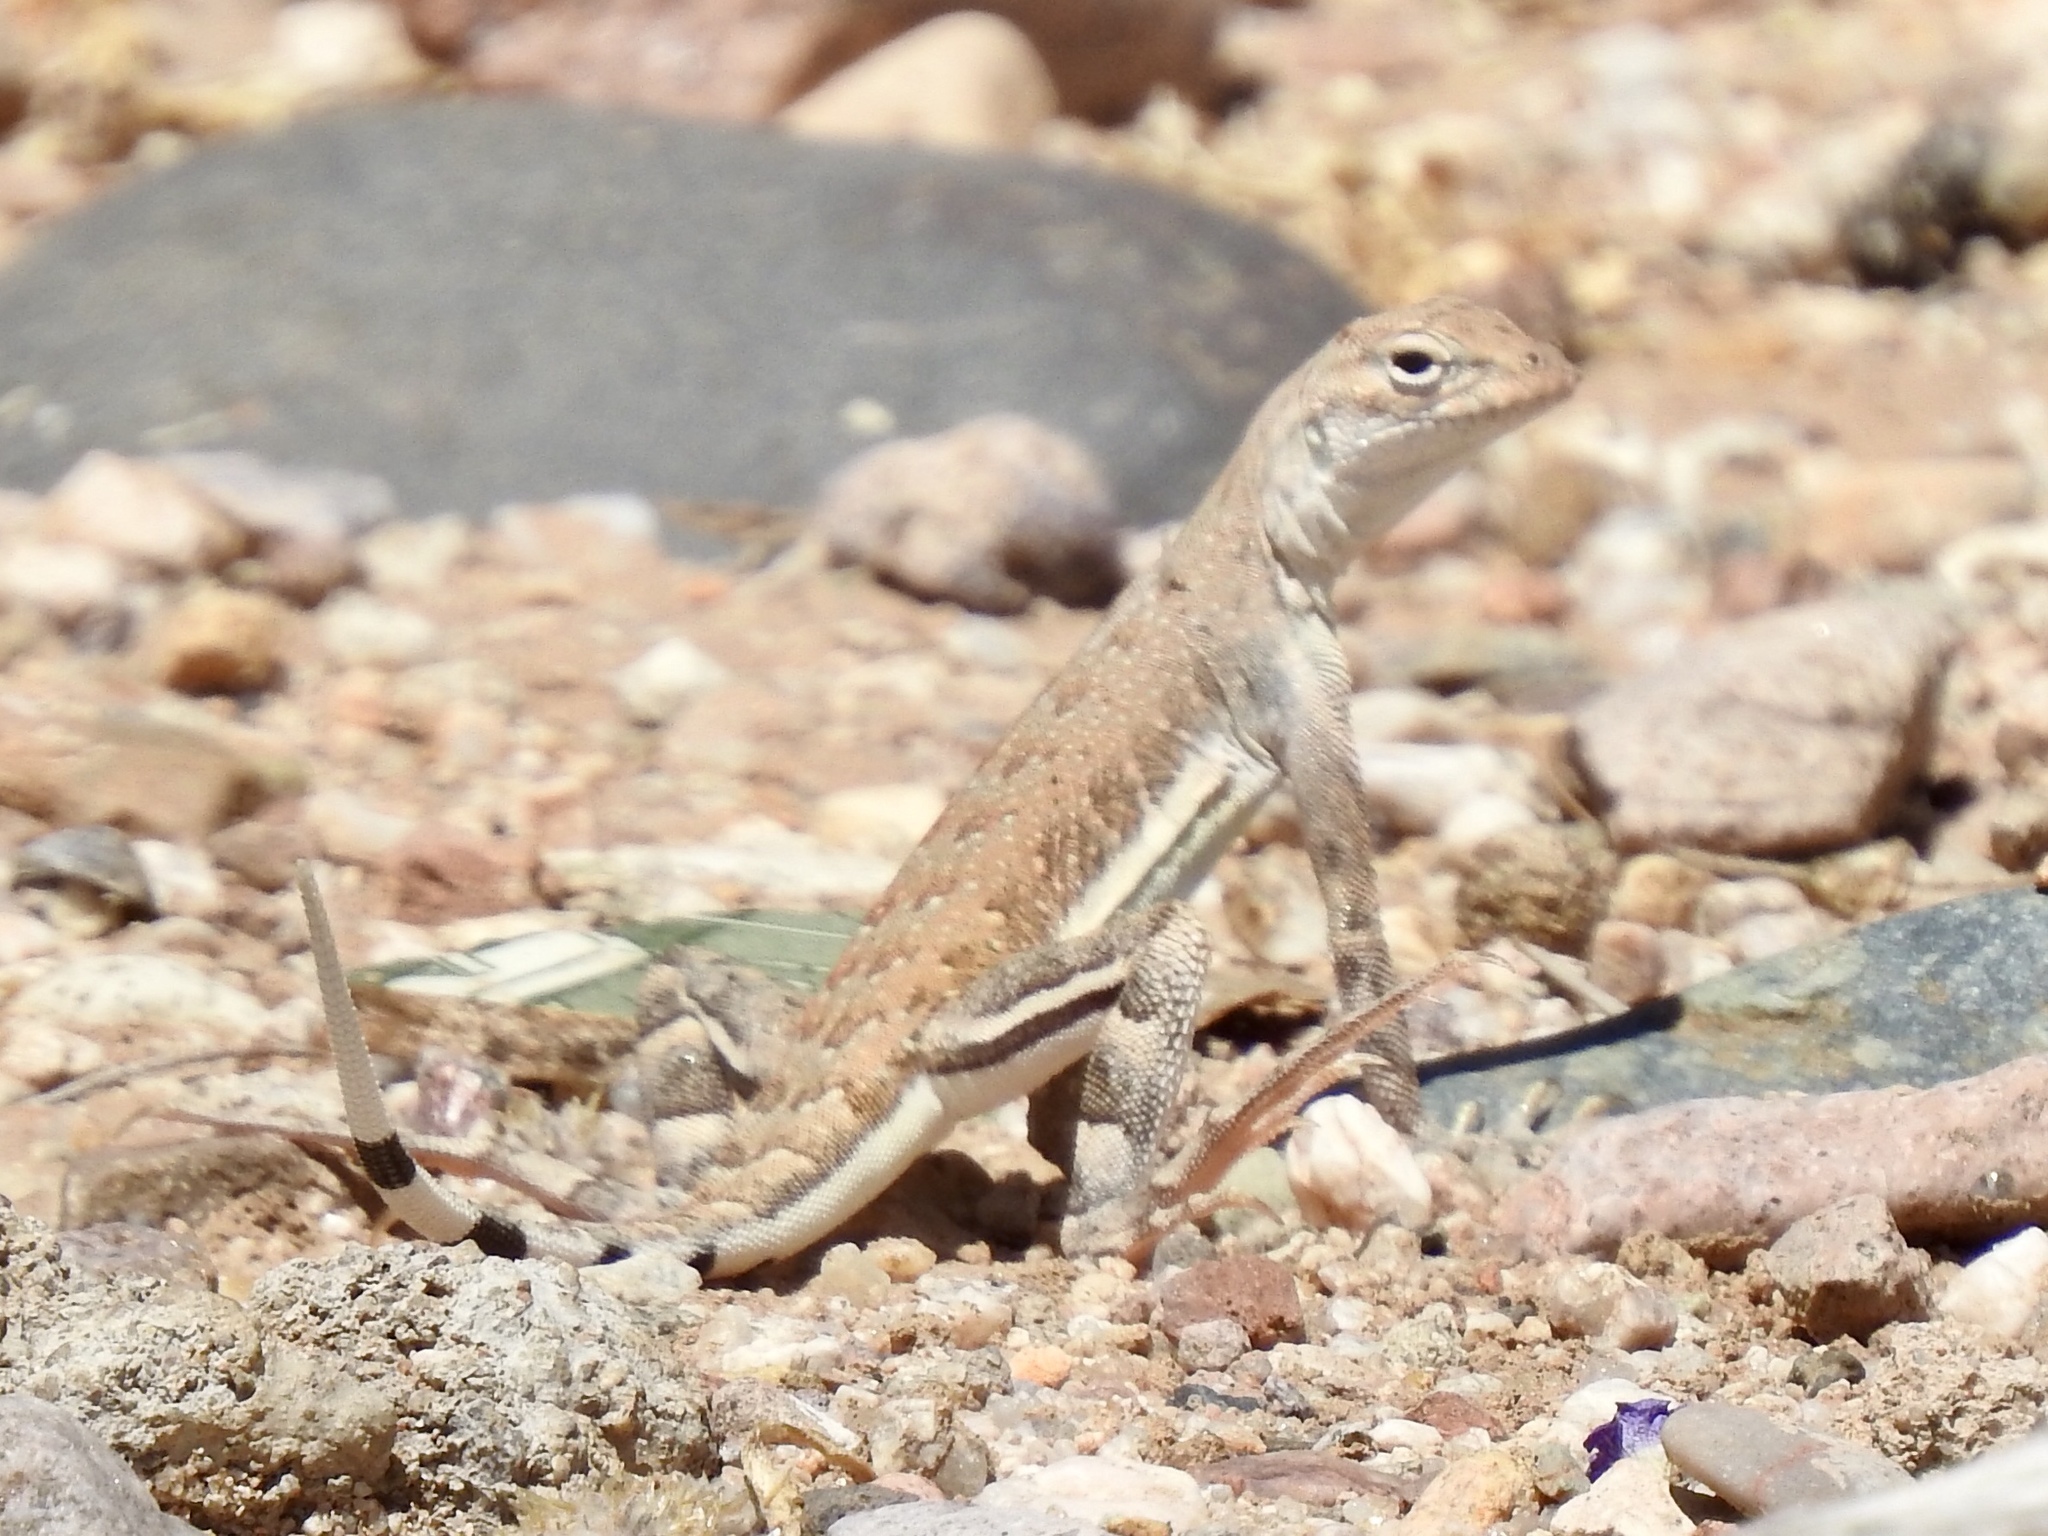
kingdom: Animalia
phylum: Chordata
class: Squamata
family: Phrynosomatidae
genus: Callisaurus
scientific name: Callisaurus draconoides
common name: Zebra-tailed lizard
